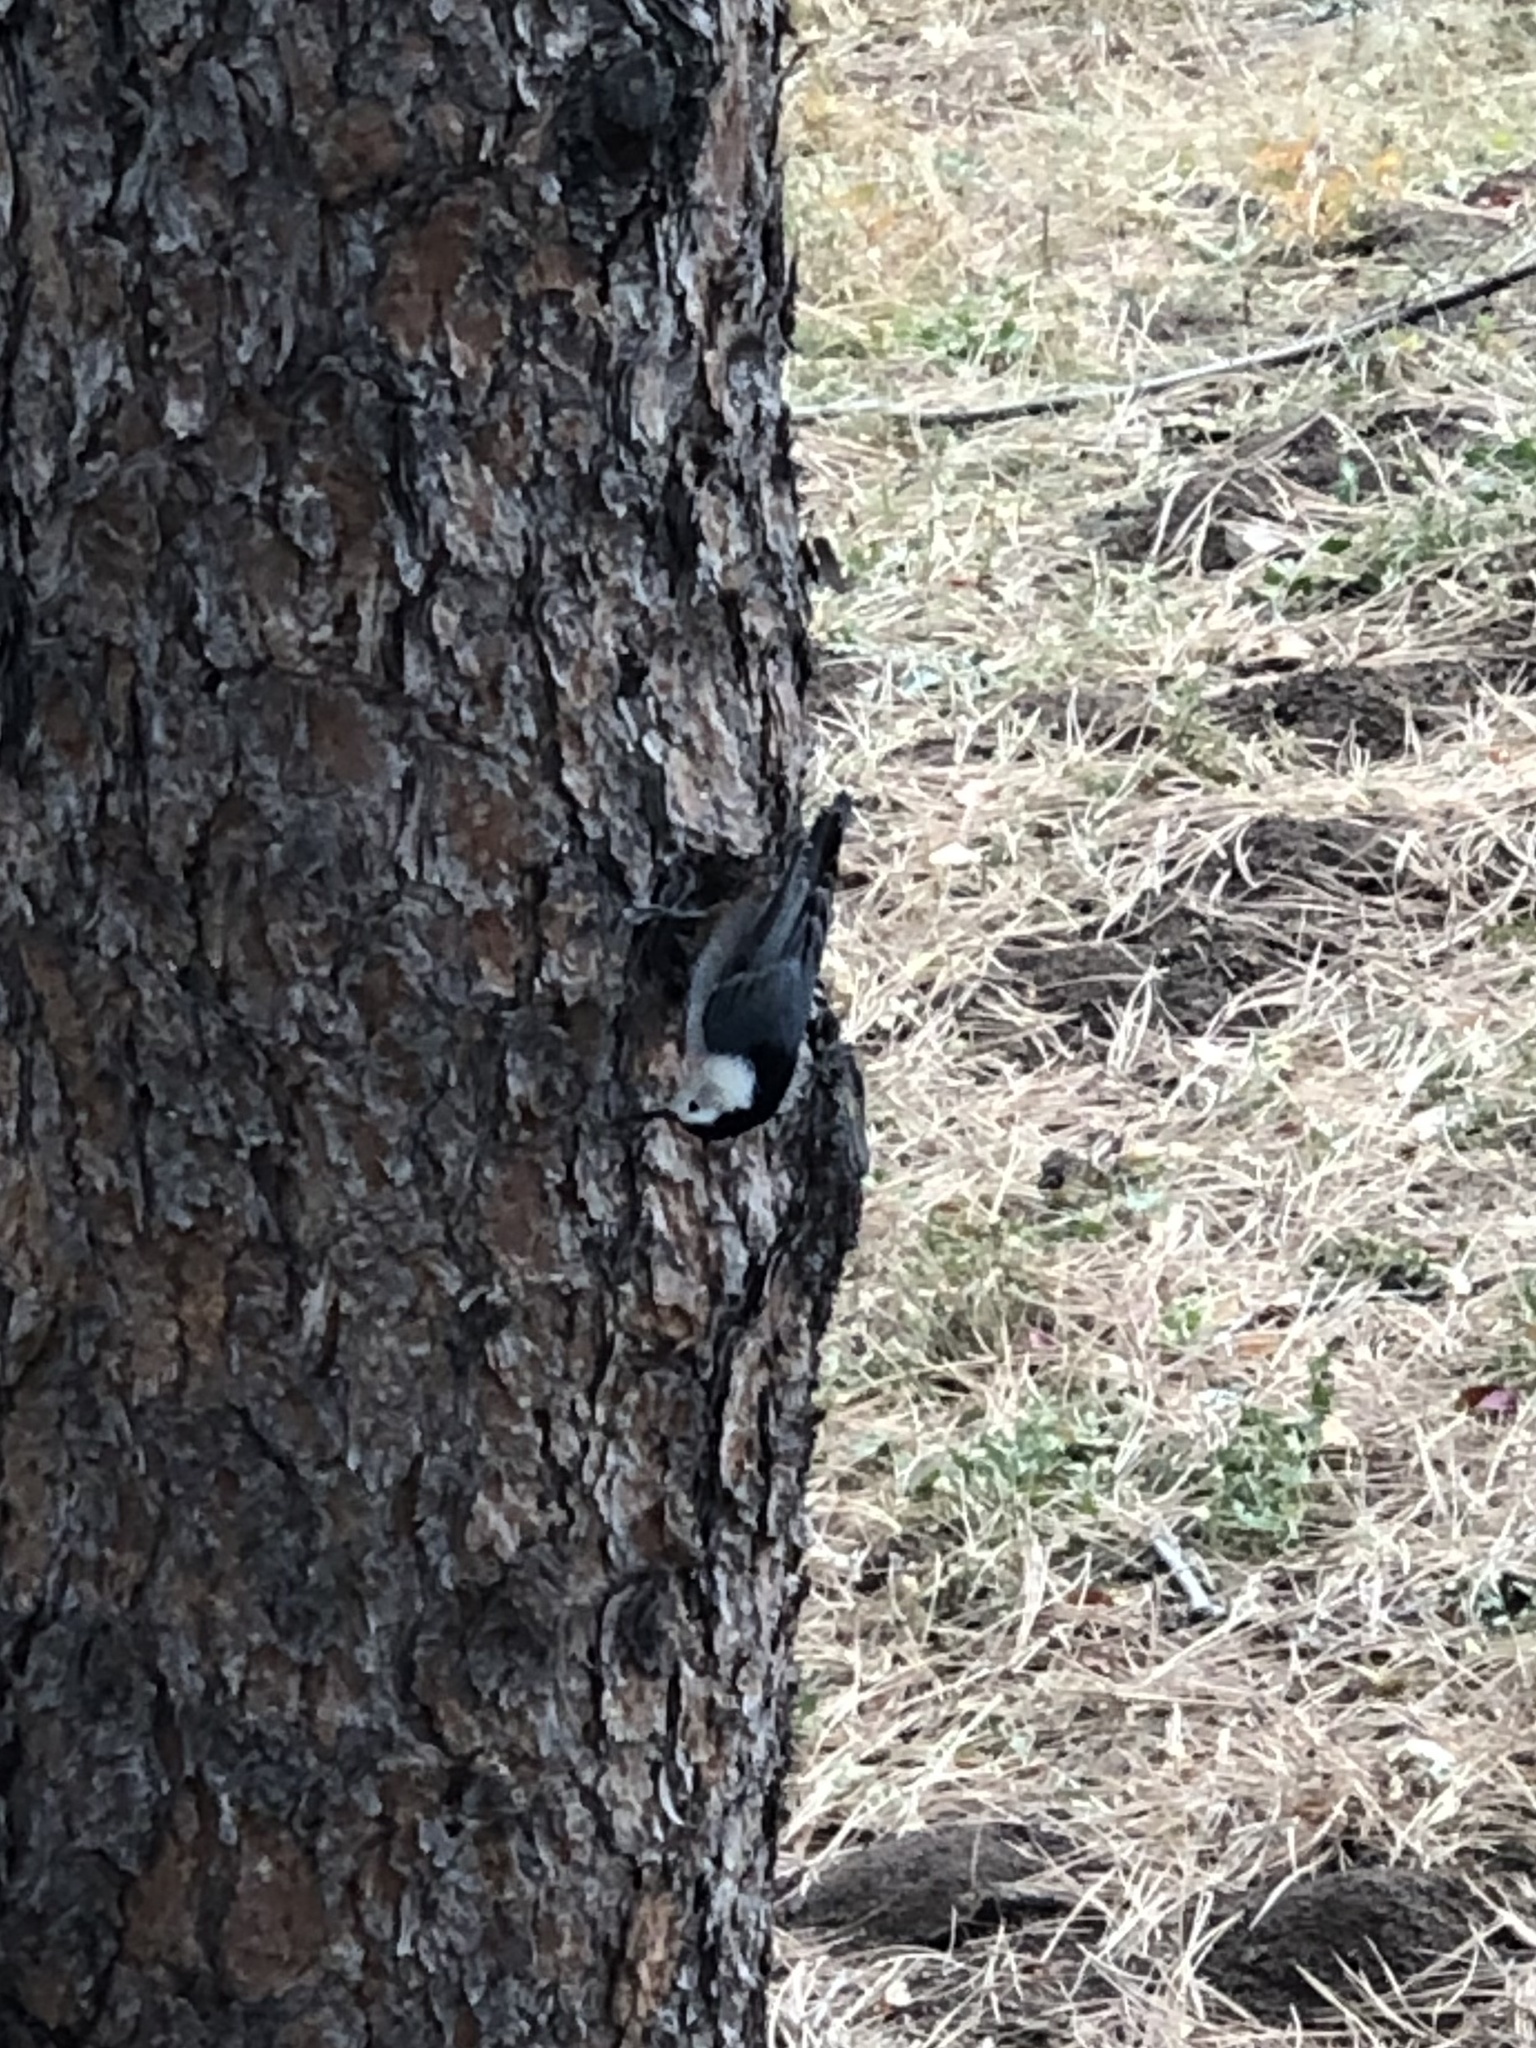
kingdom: Animalia
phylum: Chordata
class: Aves
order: Passeriformes
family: Sittidae
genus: Sitta
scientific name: Sitta carolinensis
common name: White-breasted nuthatch
